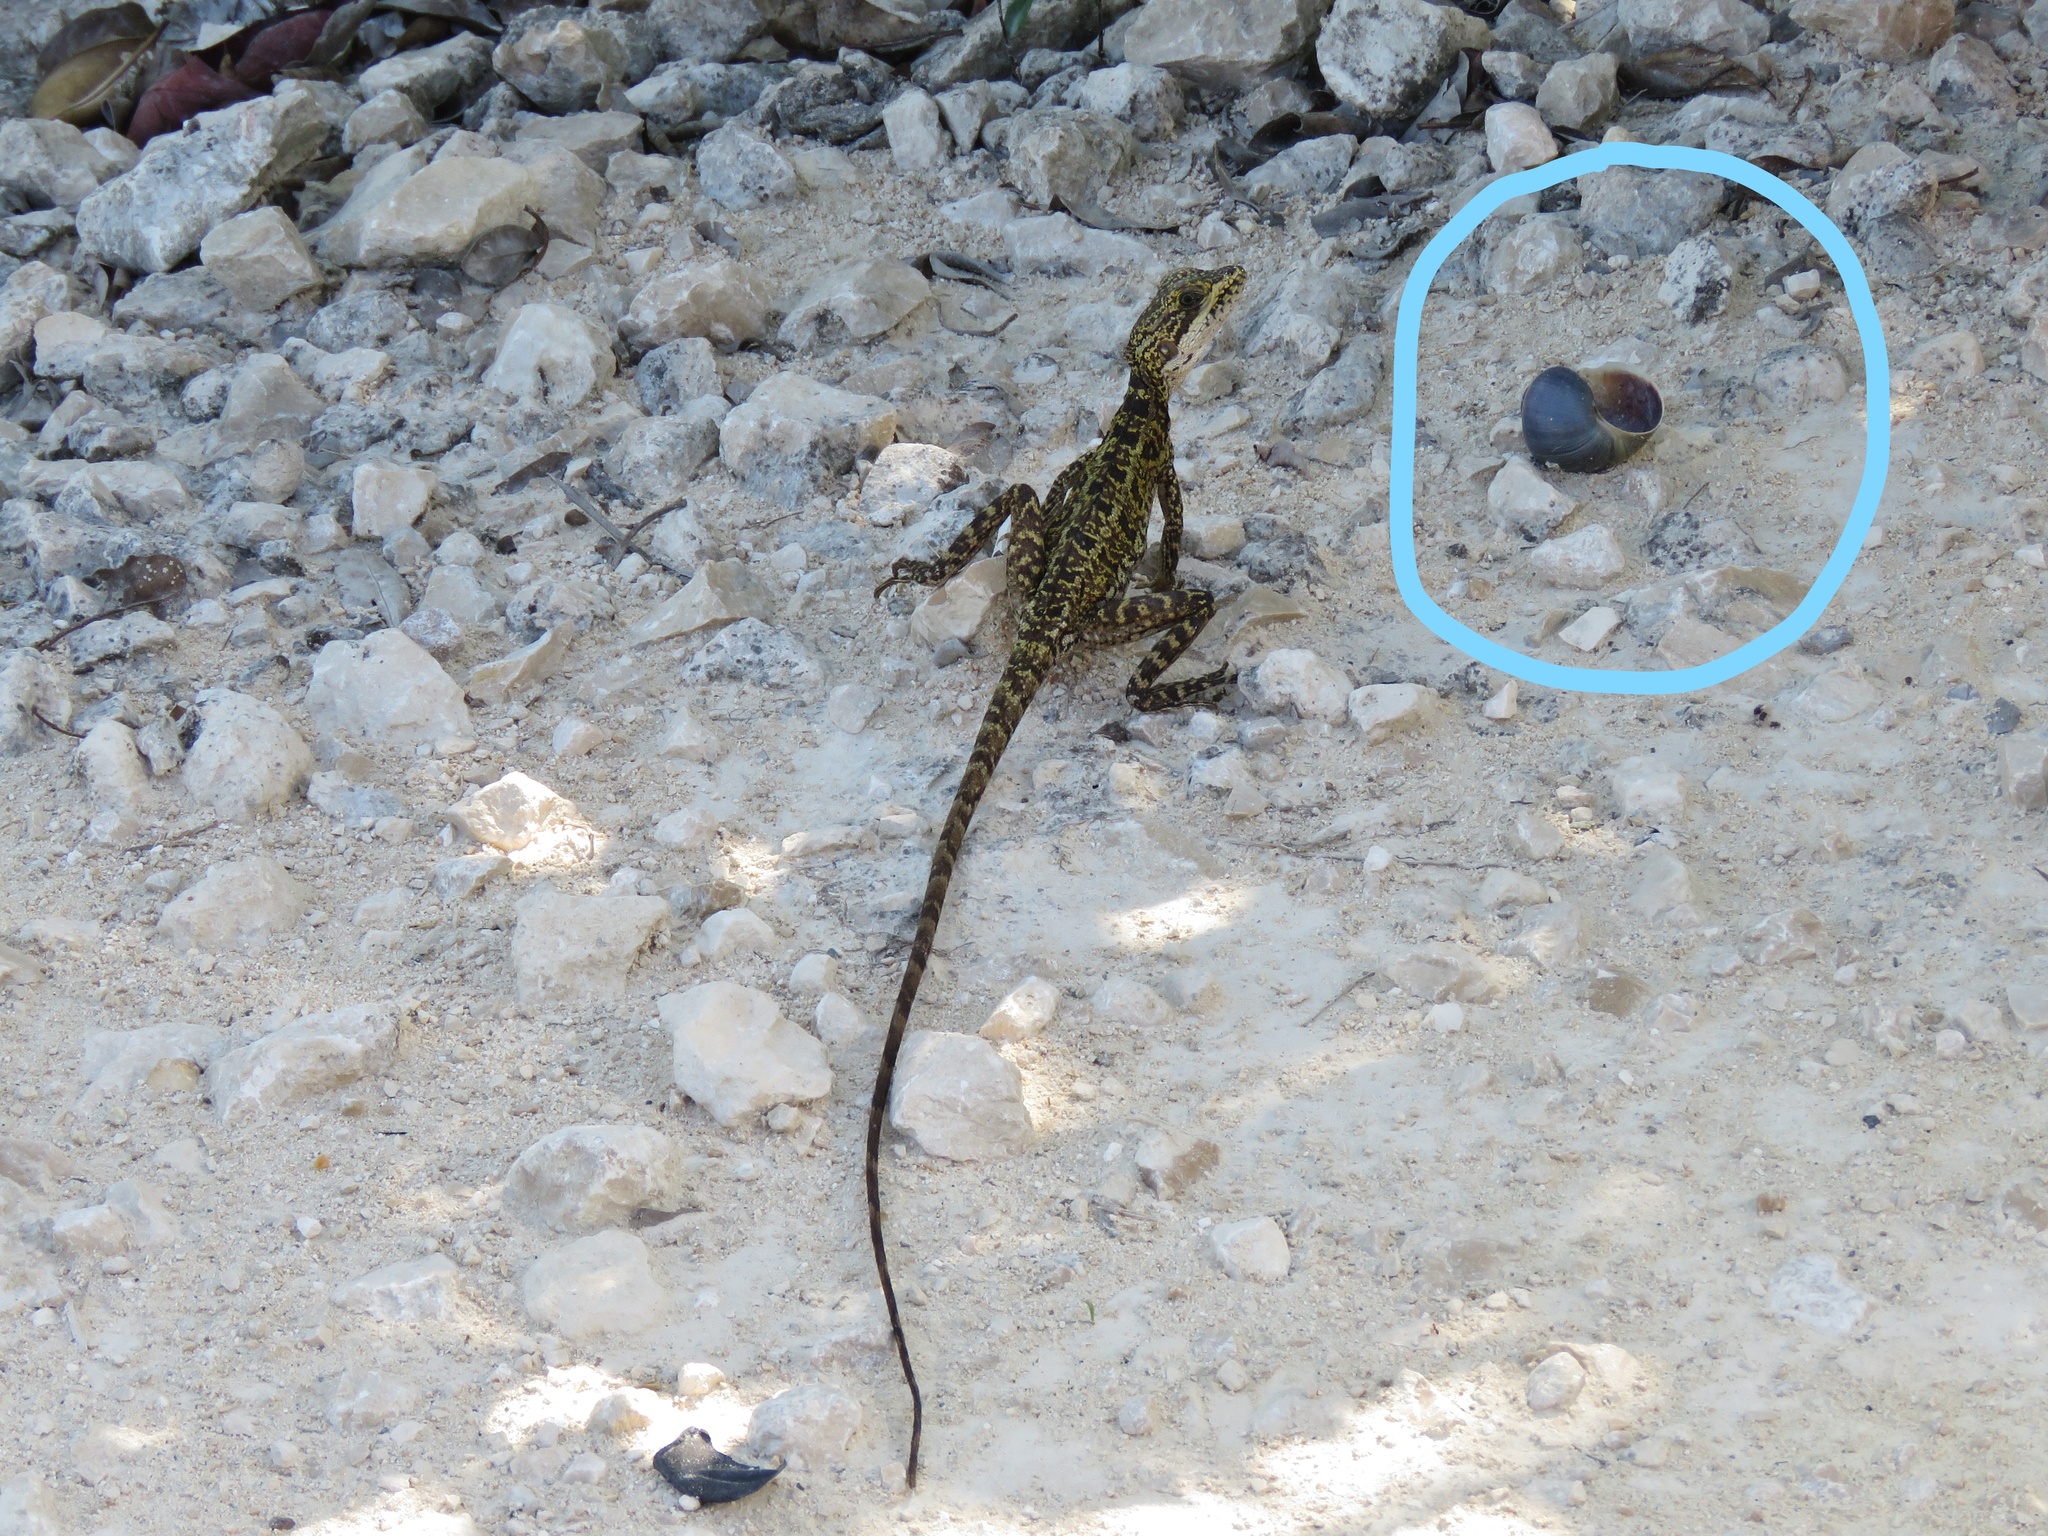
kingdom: Animalia
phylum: Mollusca
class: Gastropoda
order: Architaenioglossa
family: Ampullariidae
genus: Pomacea
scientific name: Pomacea flagellata
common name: Maya apple snail
